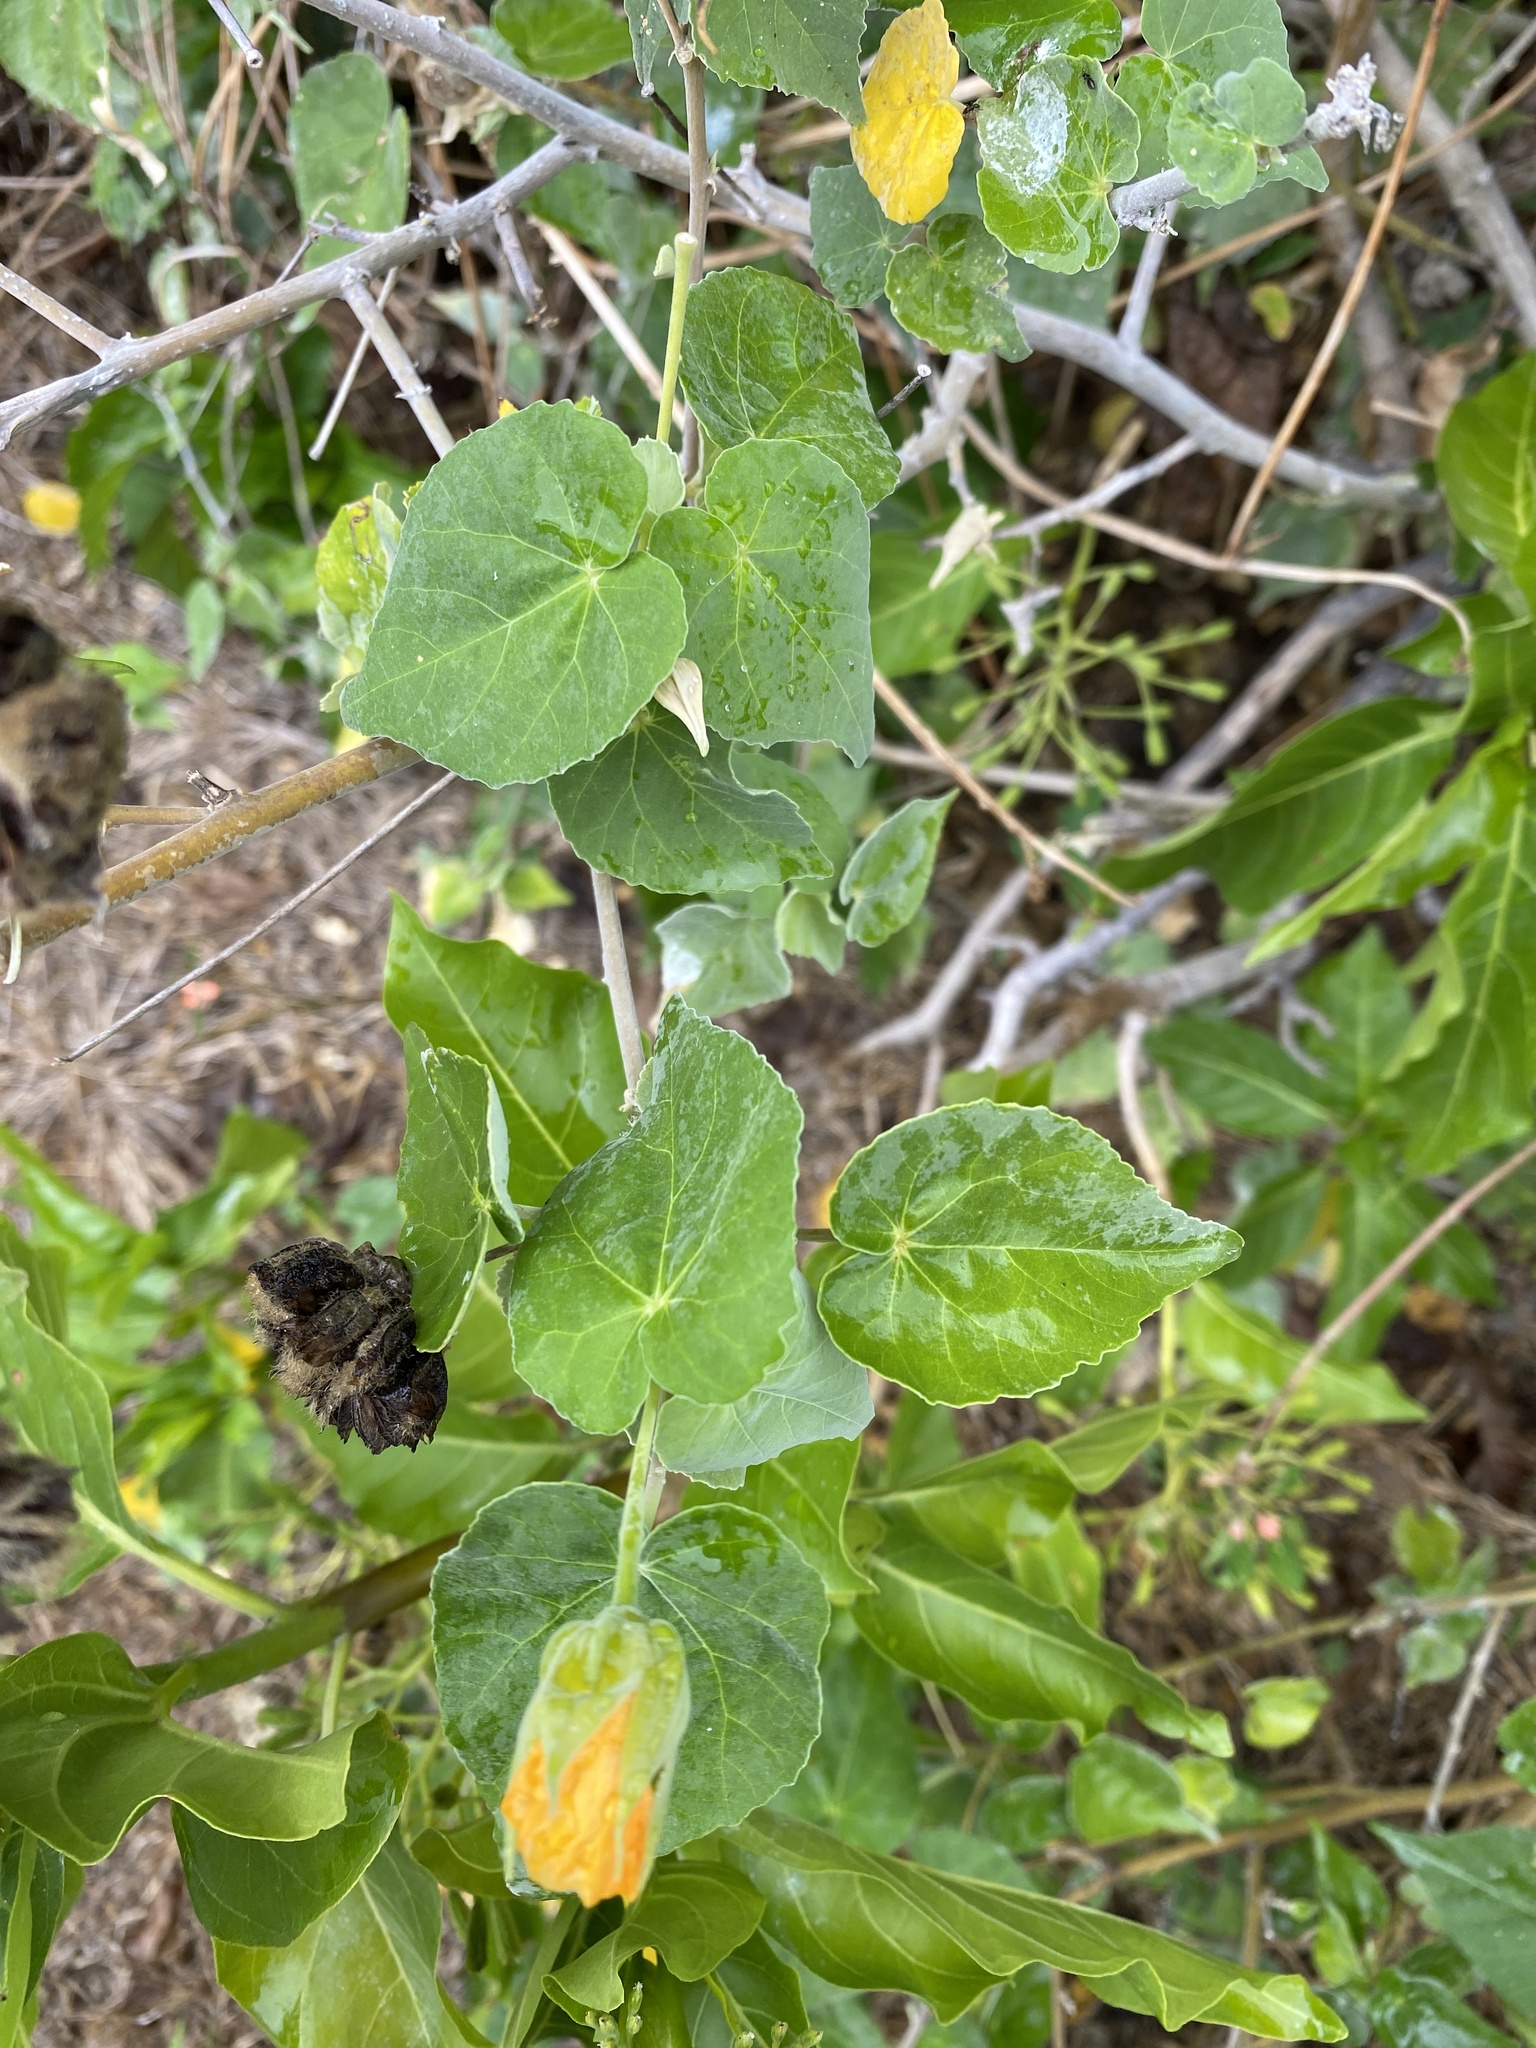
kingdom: Plantae
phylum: Tracheophyta
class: Magnoliopsida
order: Malvales
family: Malvaceae
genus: Abutilon
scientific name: Abutilon indicum
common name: Indian abutilon
